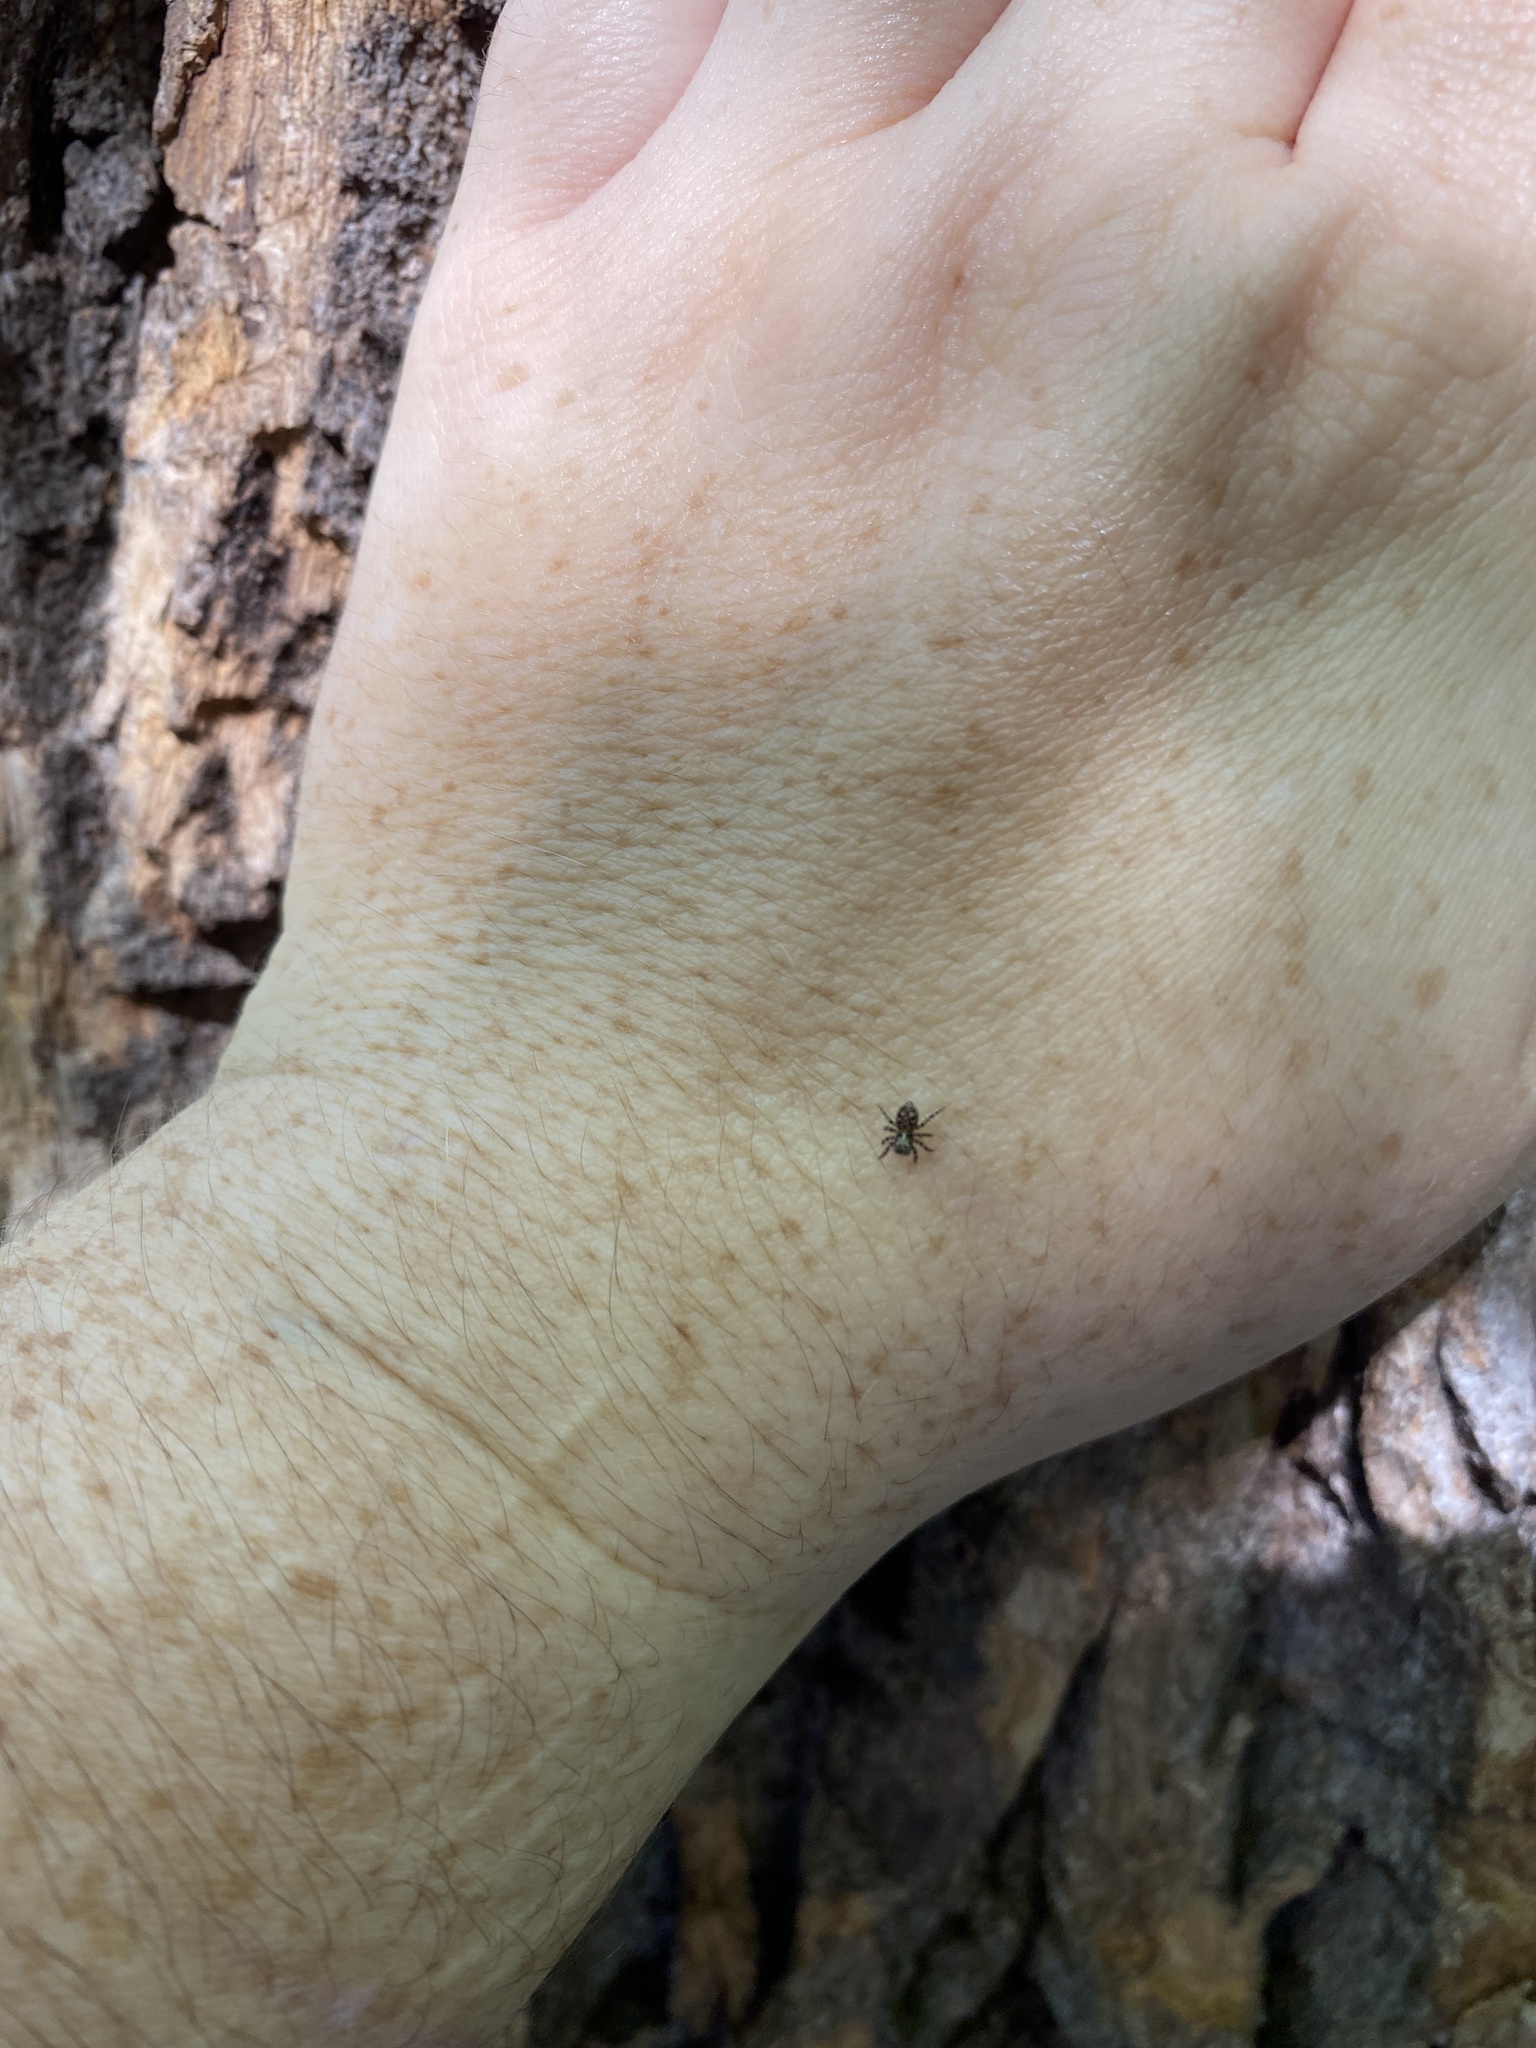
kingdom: Animalia
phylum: Arthropoda
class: Arachnida
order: Araneae
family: Salticidae
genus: Pseudeuophrys
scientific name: Pseudeuophrys erratica
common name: Jumping spider
